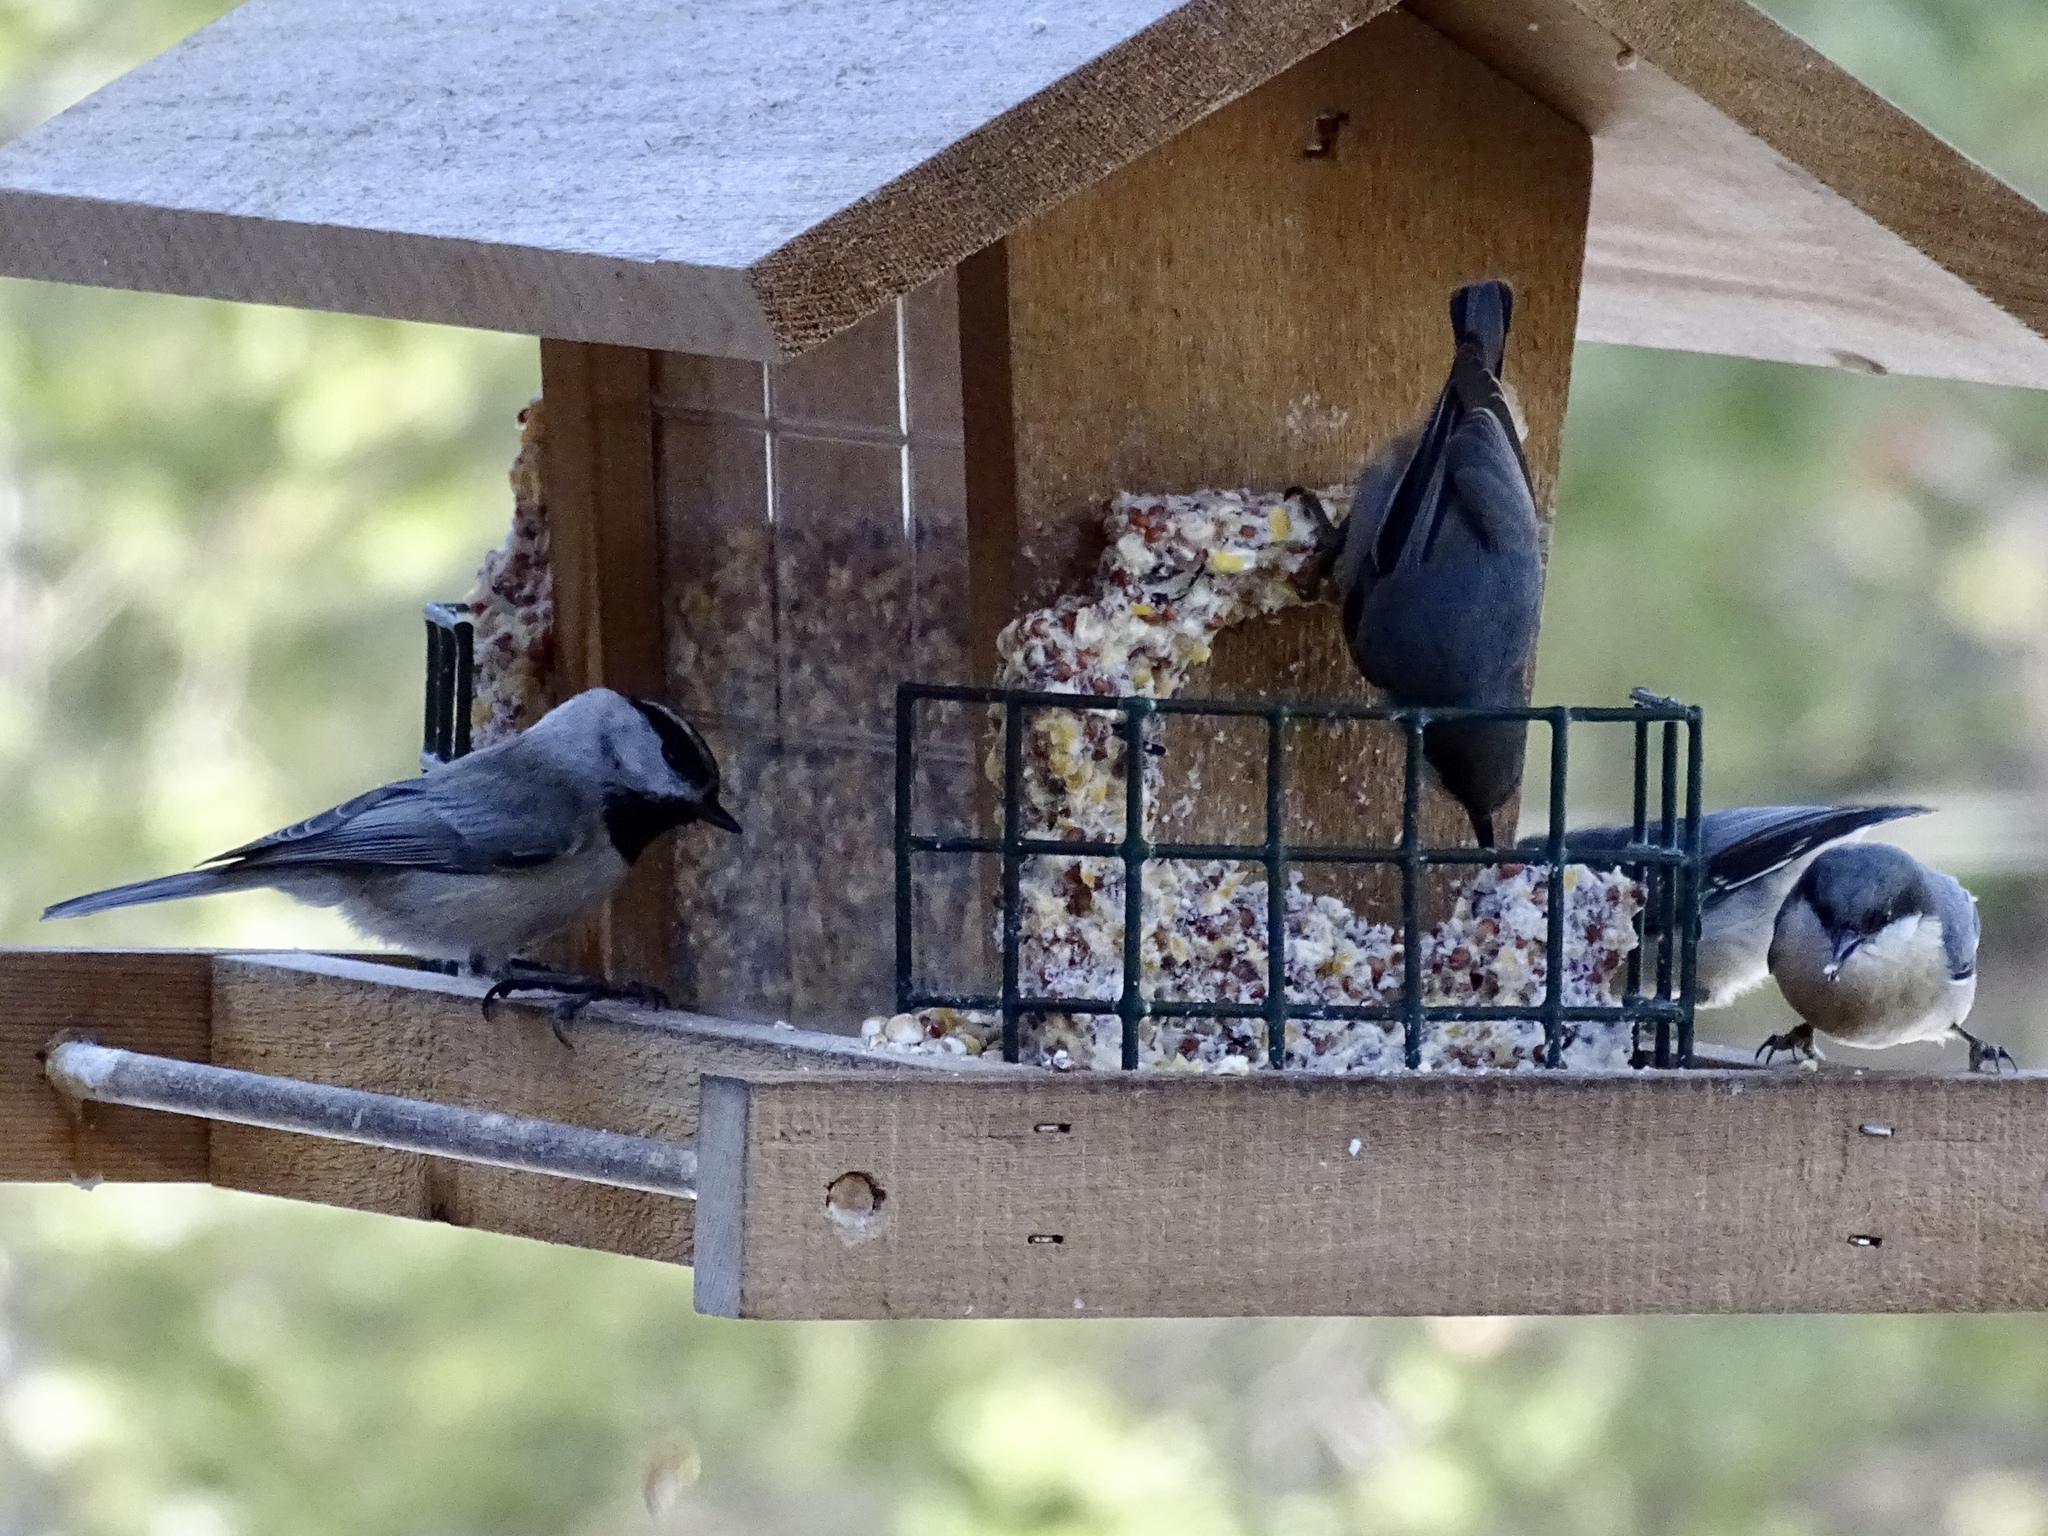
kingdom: Animalia
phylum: Chordata
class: Aves
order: Passeriformes
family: Paridae
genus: Poecile
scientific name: Poecile gambeli
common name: Mountain chickadee
